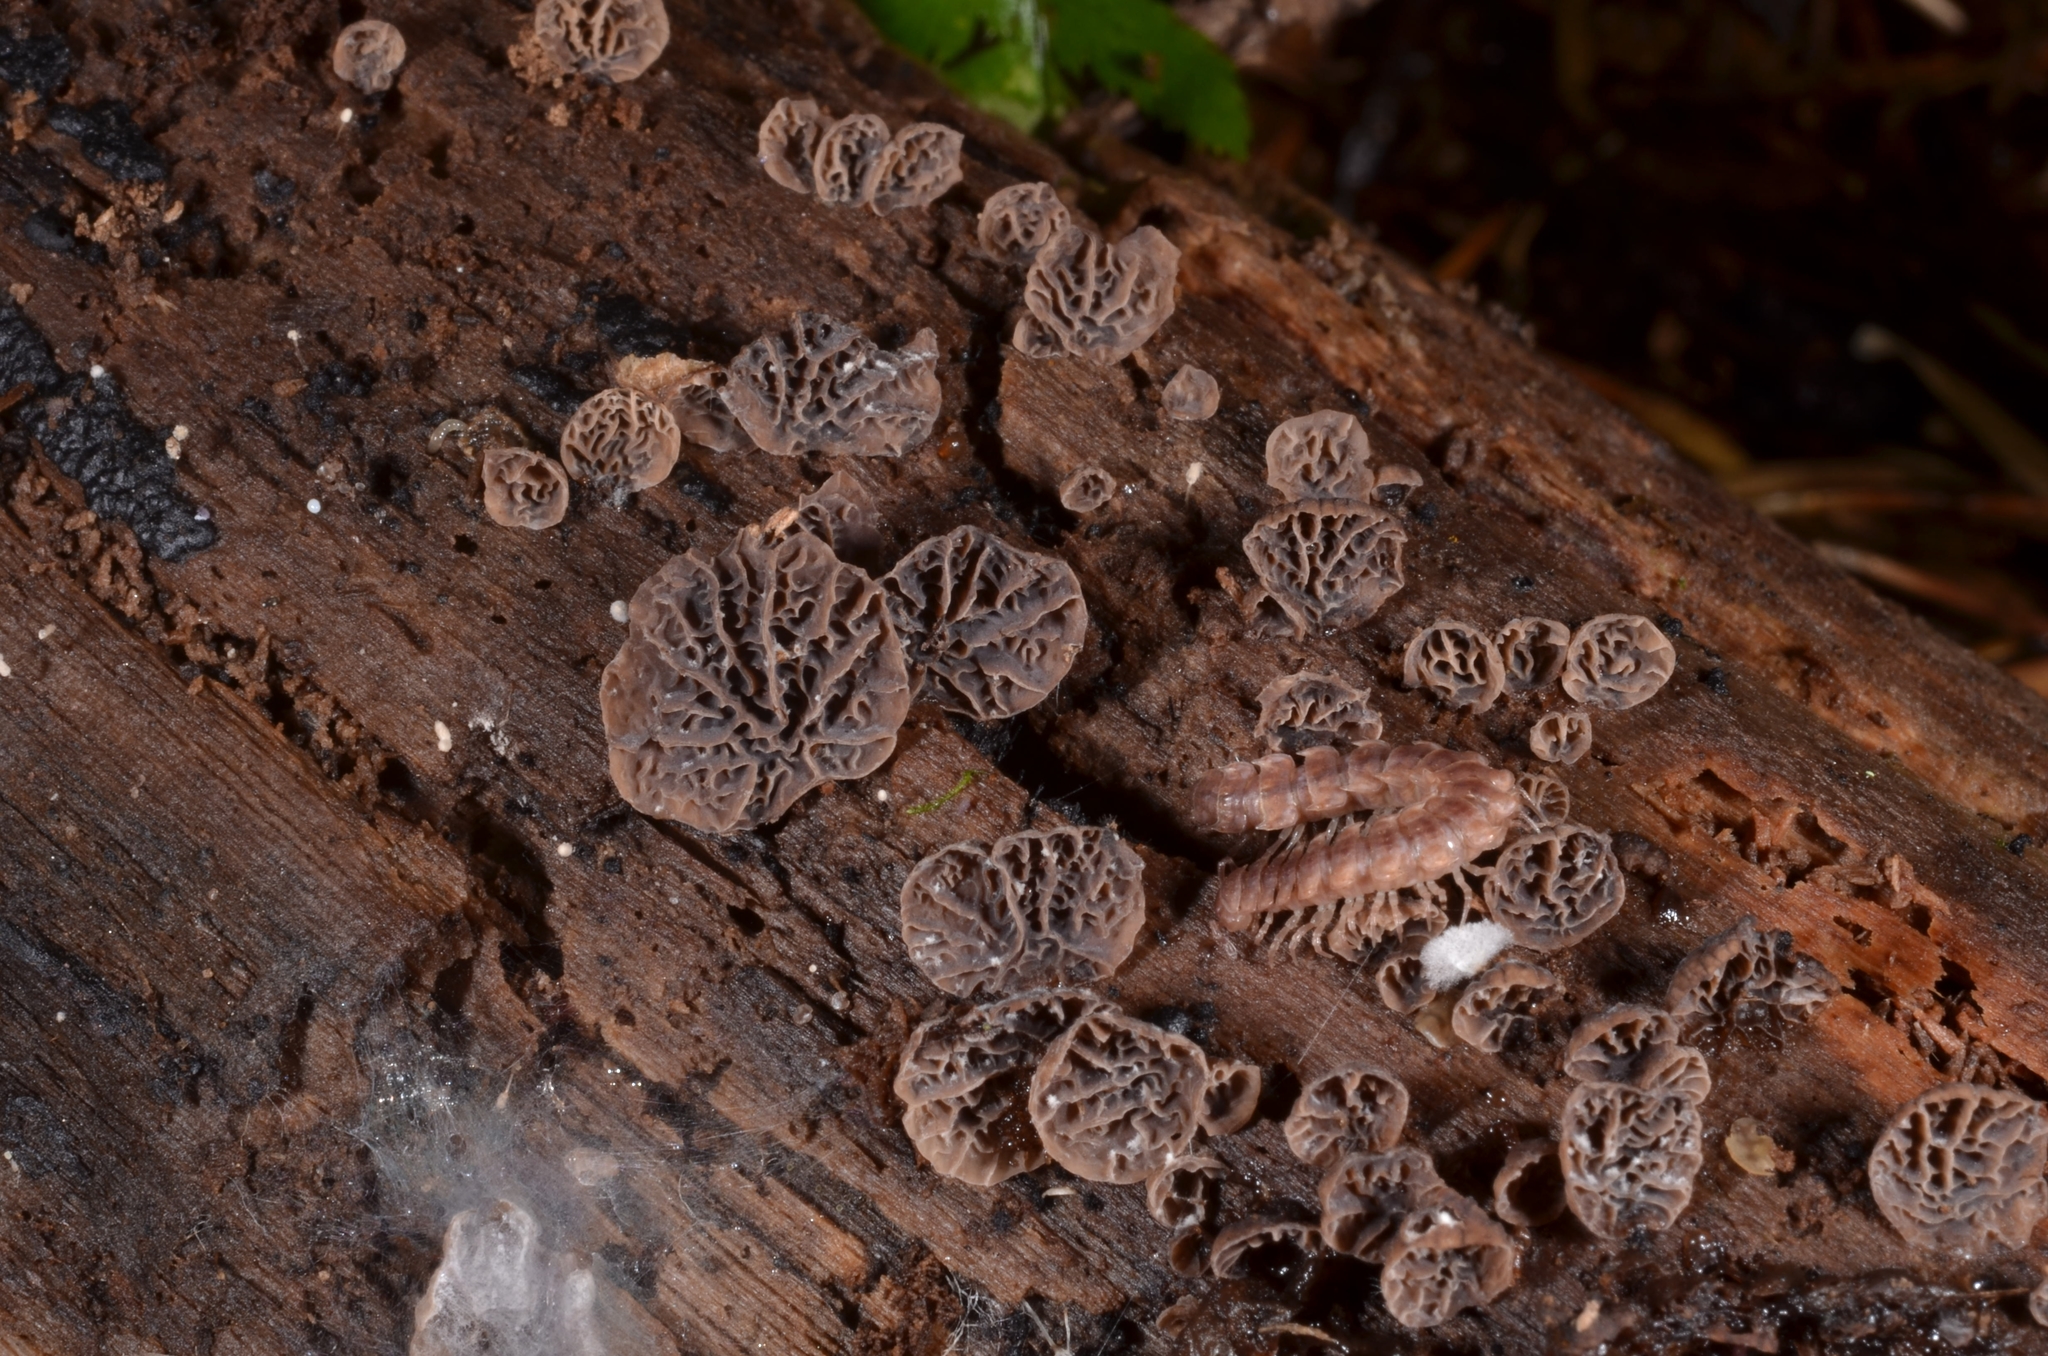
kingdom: Fungi
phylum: Basidiomycota
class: Agaricomycetes
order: Agaricales
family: Pleurotaceae
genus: Resupinatus
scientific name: Resupinatus merulioides
